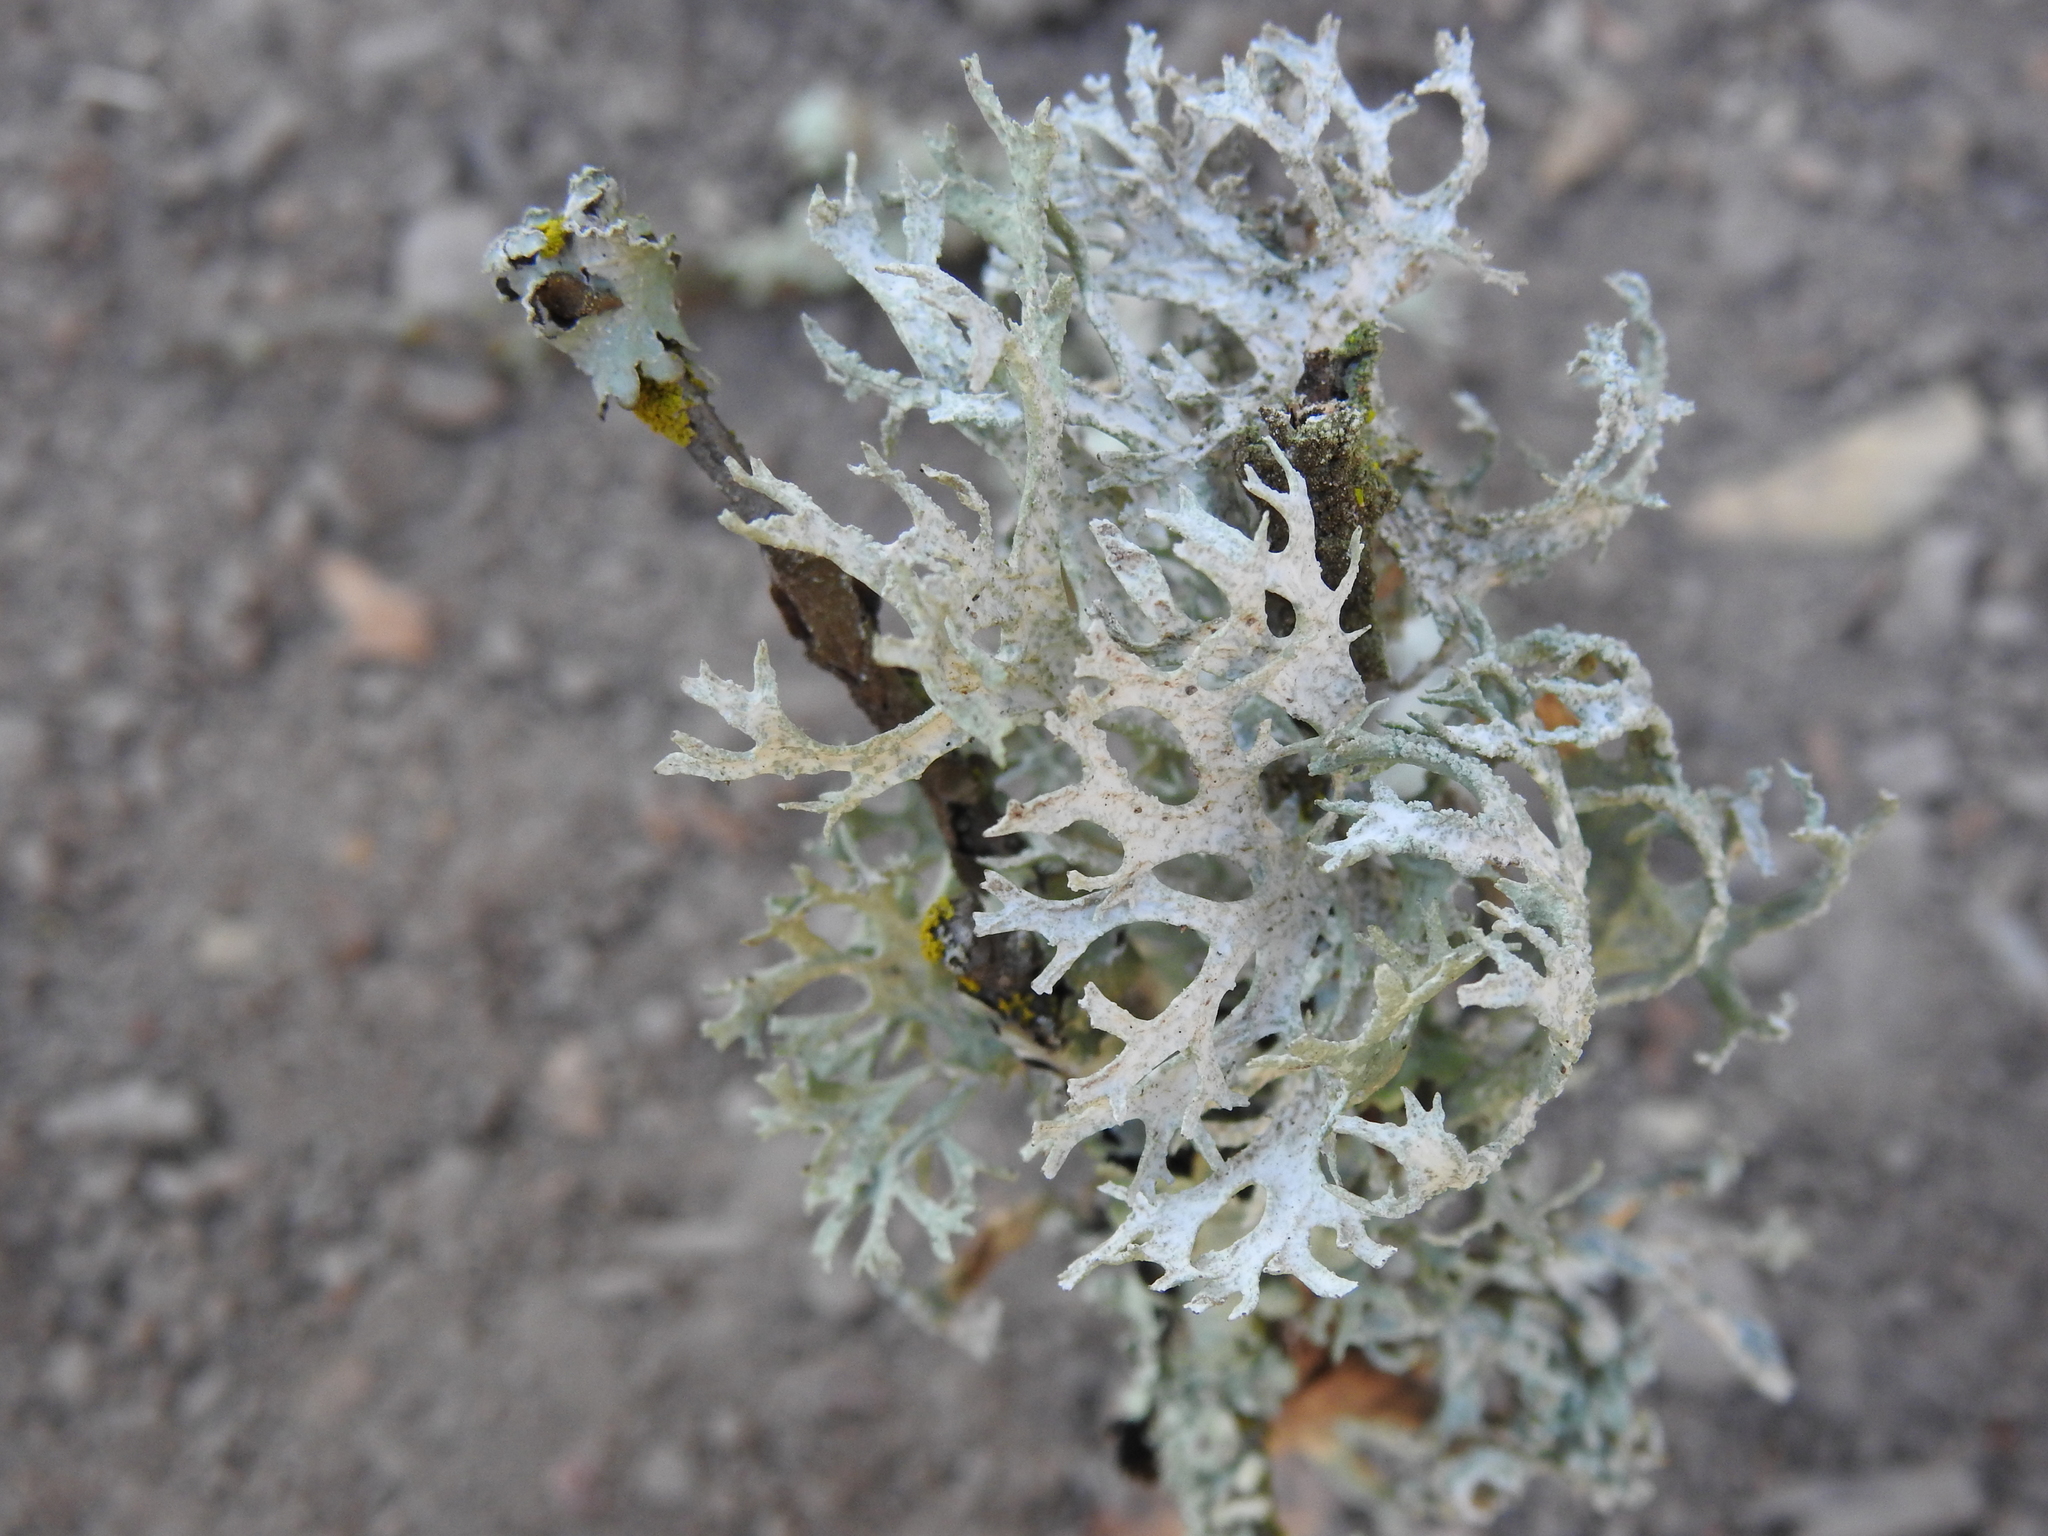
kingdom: Fungi
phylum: Ascomycota
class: Lecanoromycetes
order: Lecanorales
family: Parmeliaceae
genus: Evernia
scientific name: Evernia prunastri
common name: Oak moss
